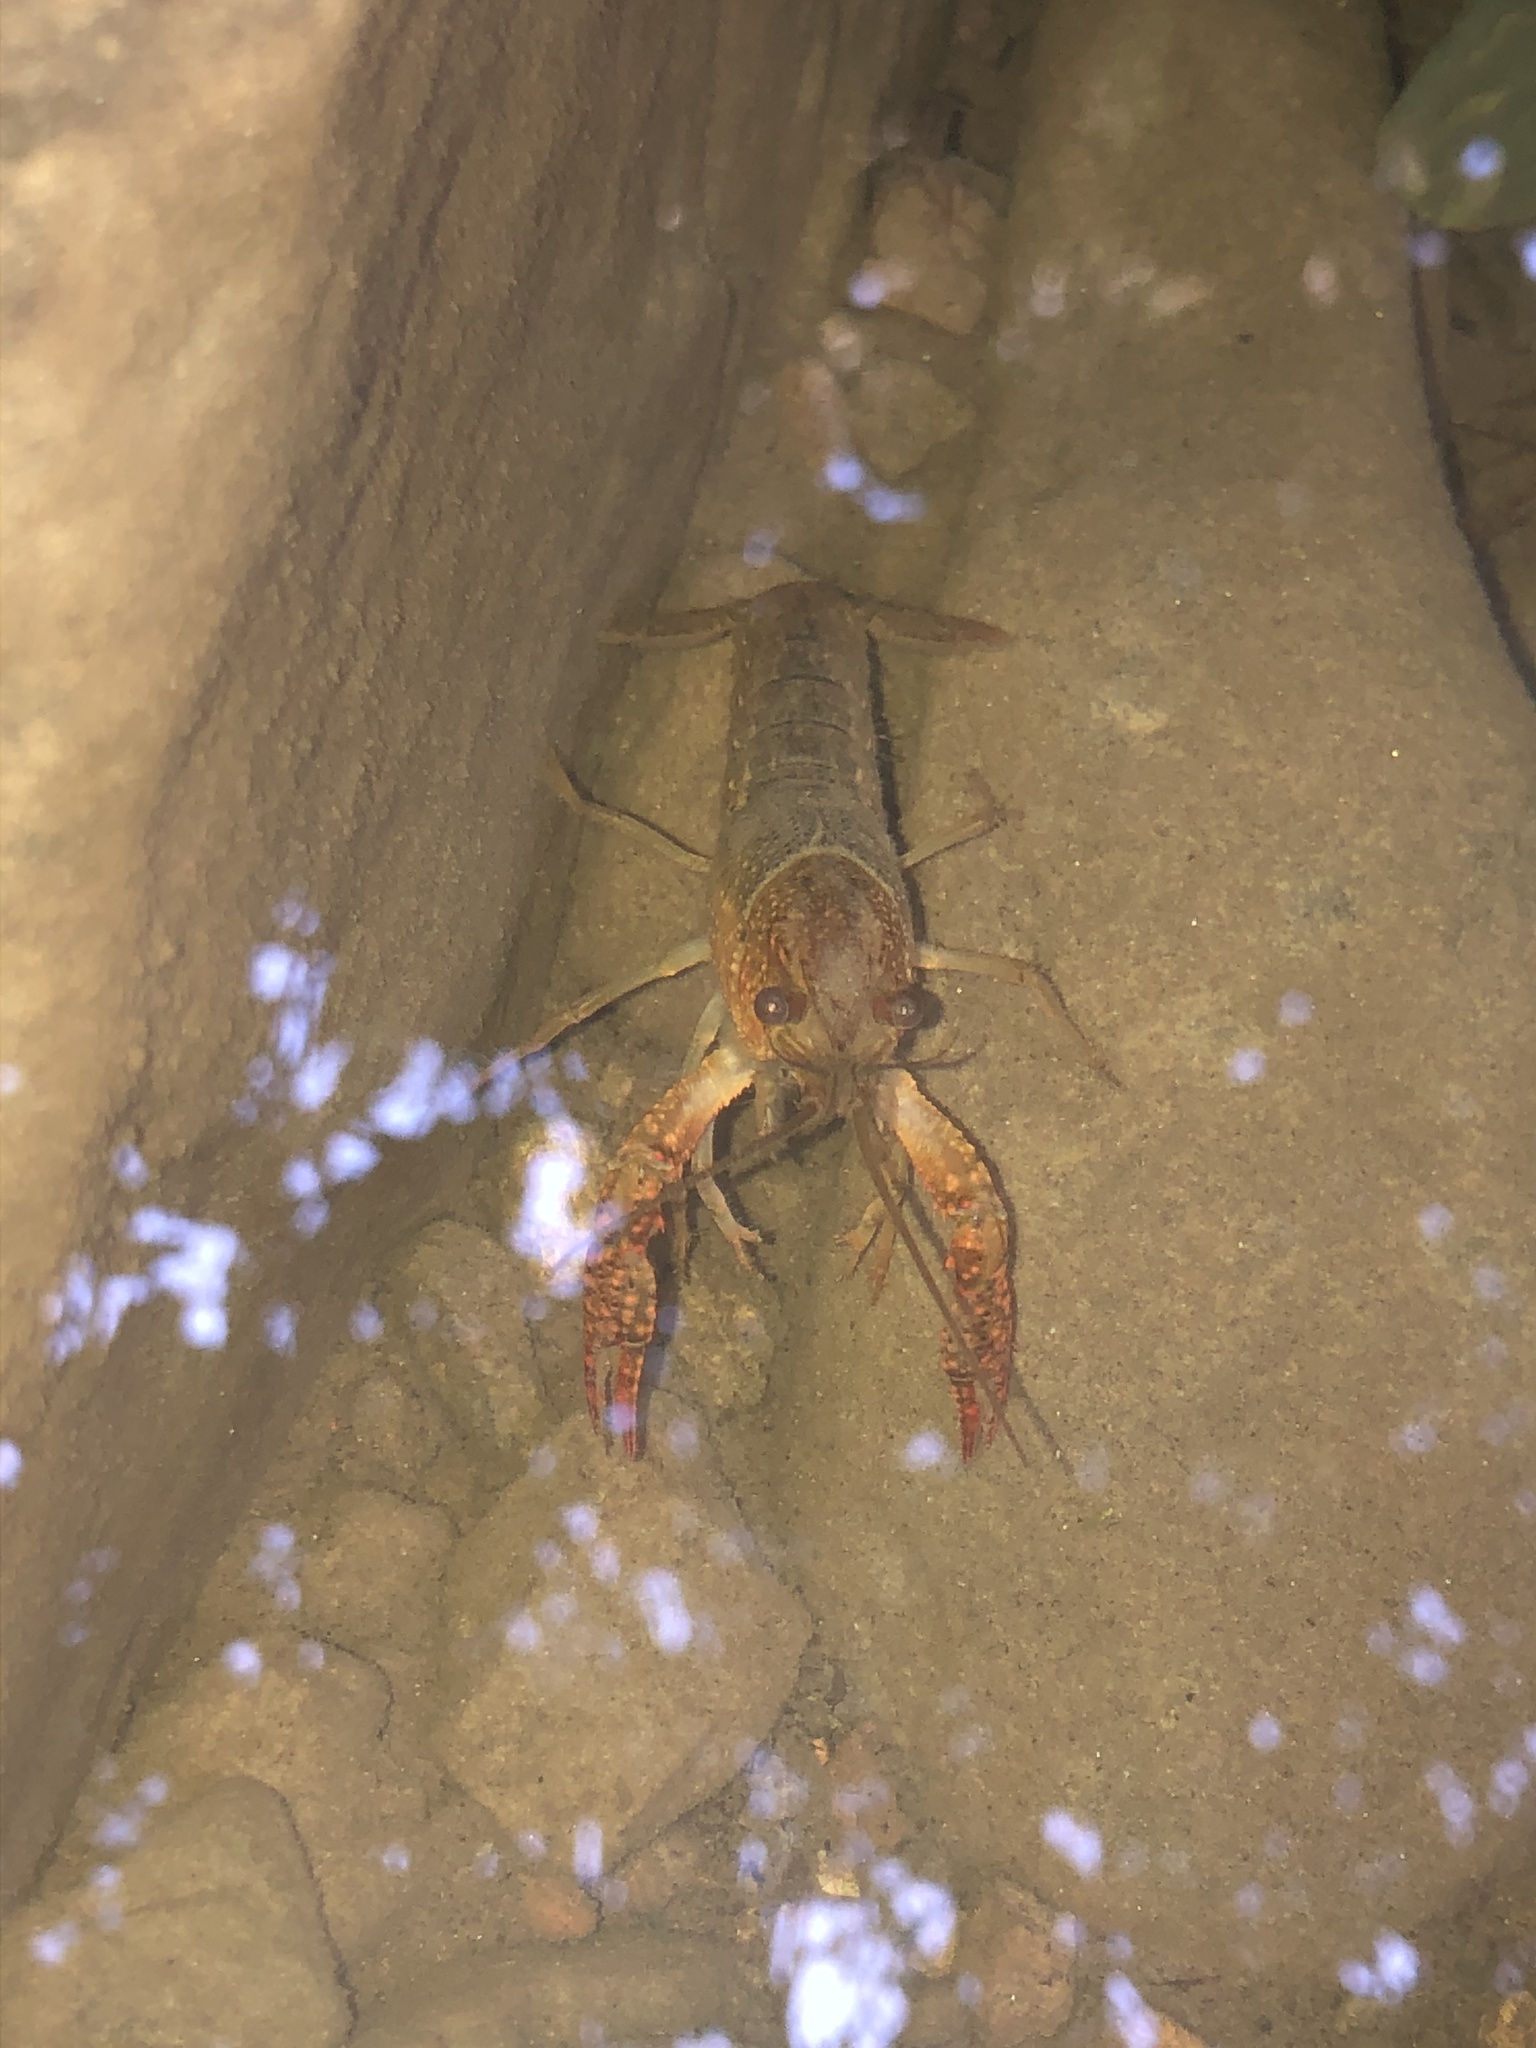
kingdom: Animalia
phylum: Arthropoda
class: Malacostraca
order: Decapoda
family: Cambaridae
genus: Procambarus
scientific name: Procambarus clarkii
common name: Red swamp crayfish
